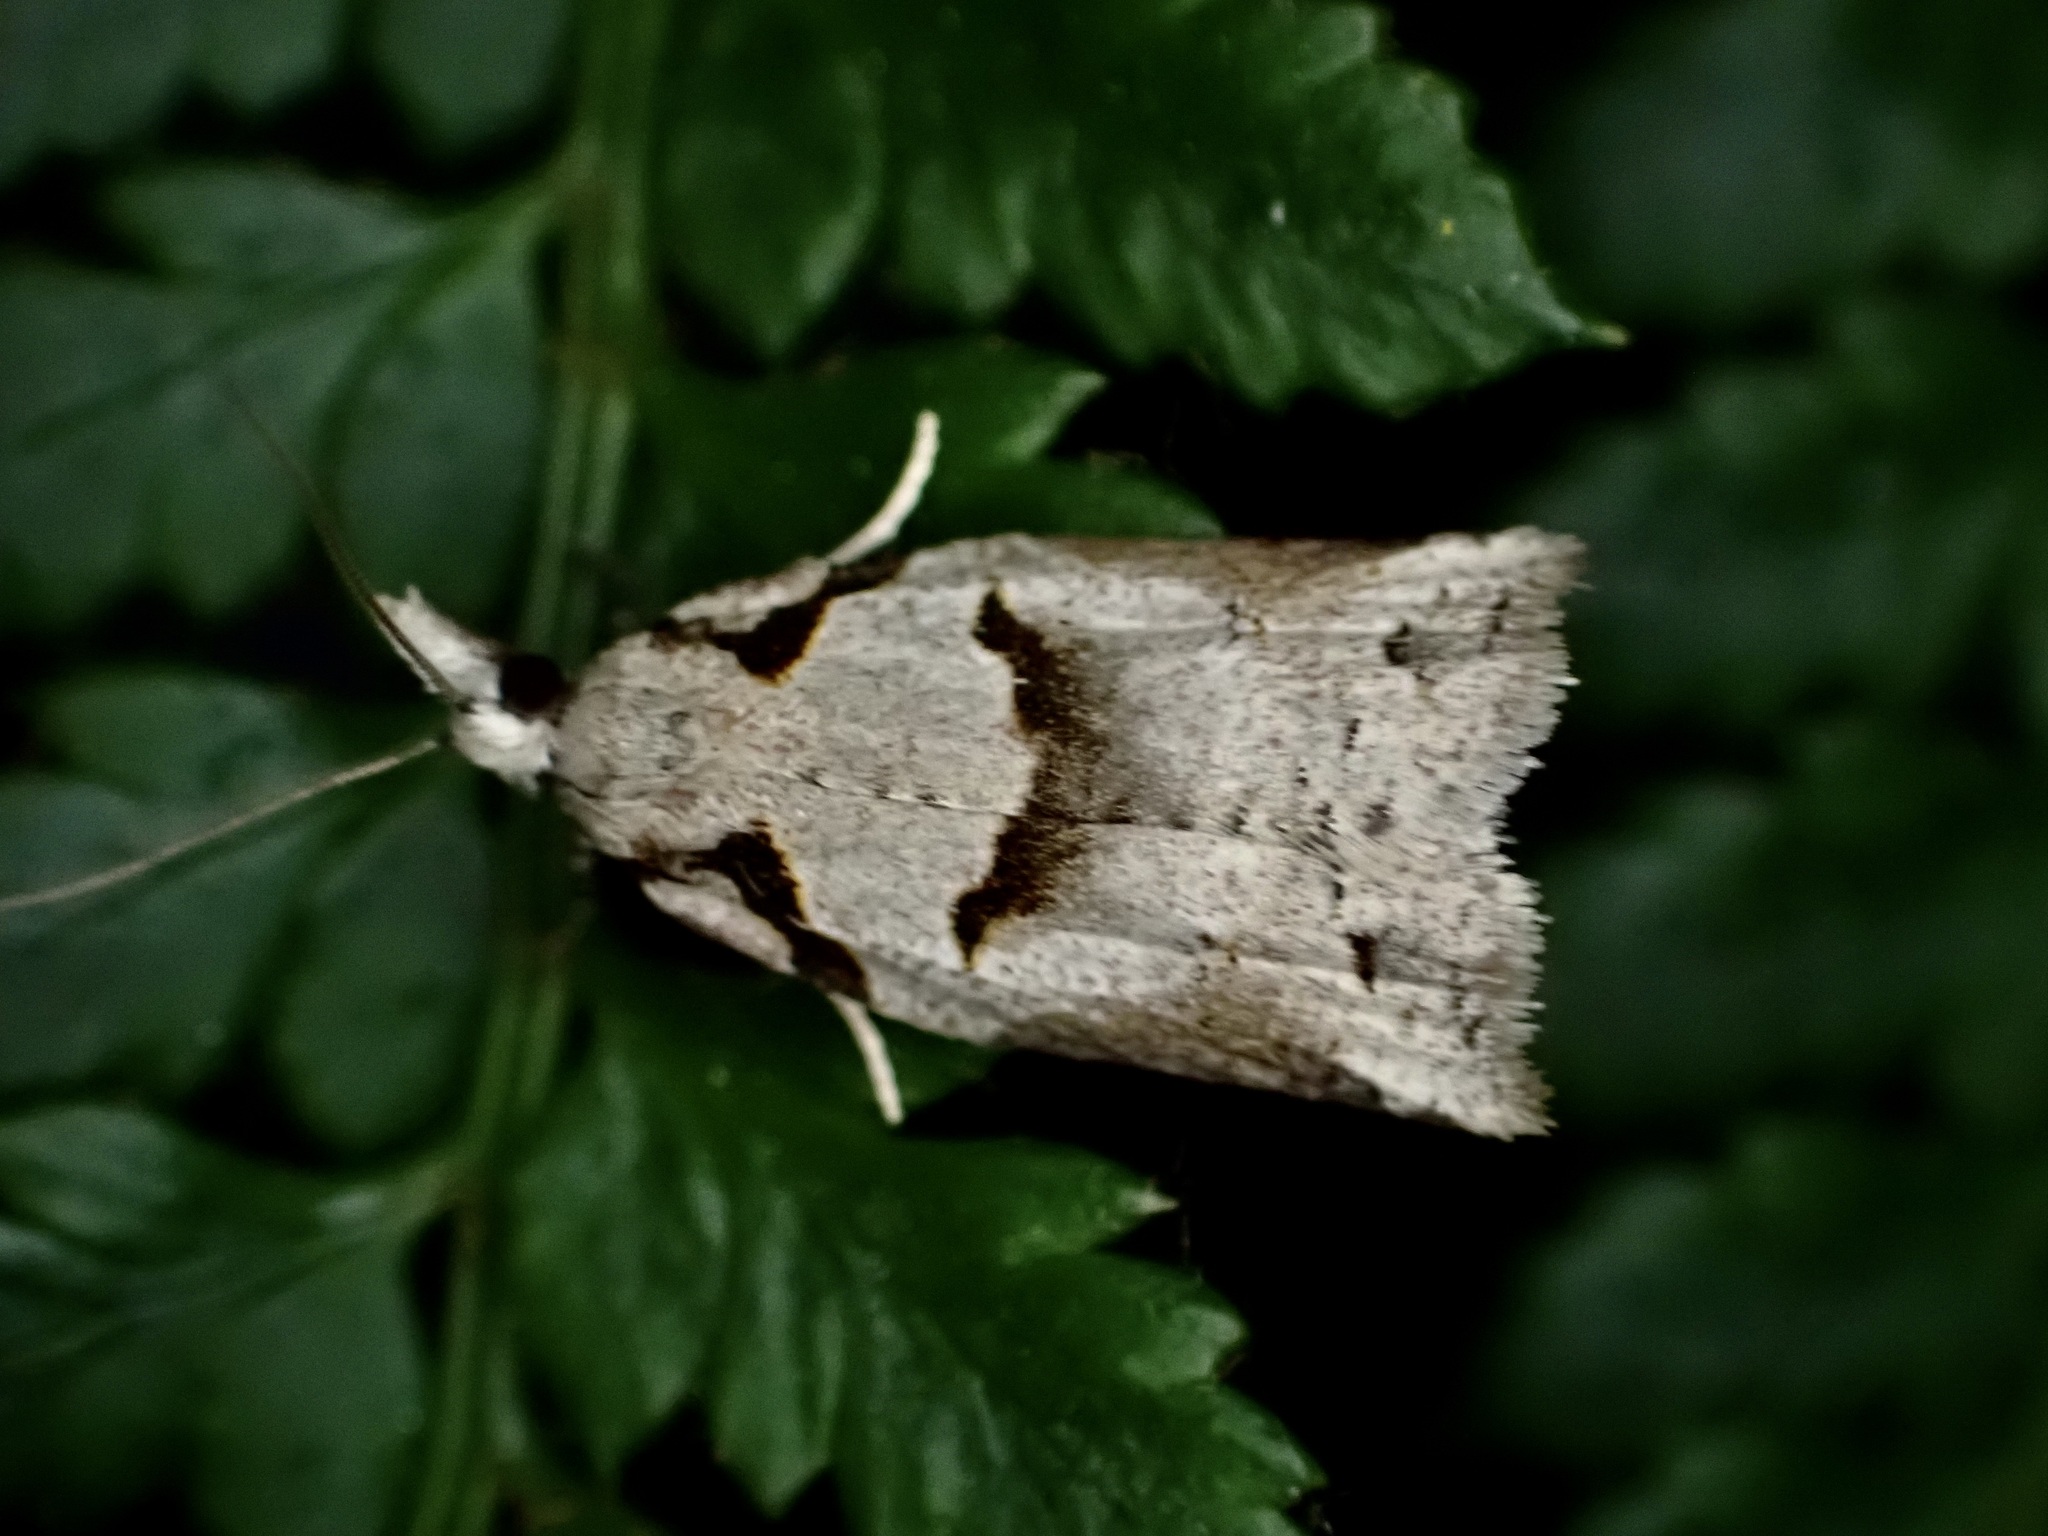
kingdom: Animalia
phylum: Arthropoda
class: Insecta
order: Lepidoptera
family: Tortricidae
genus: Harmologa
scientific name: Harmologa amplexana
